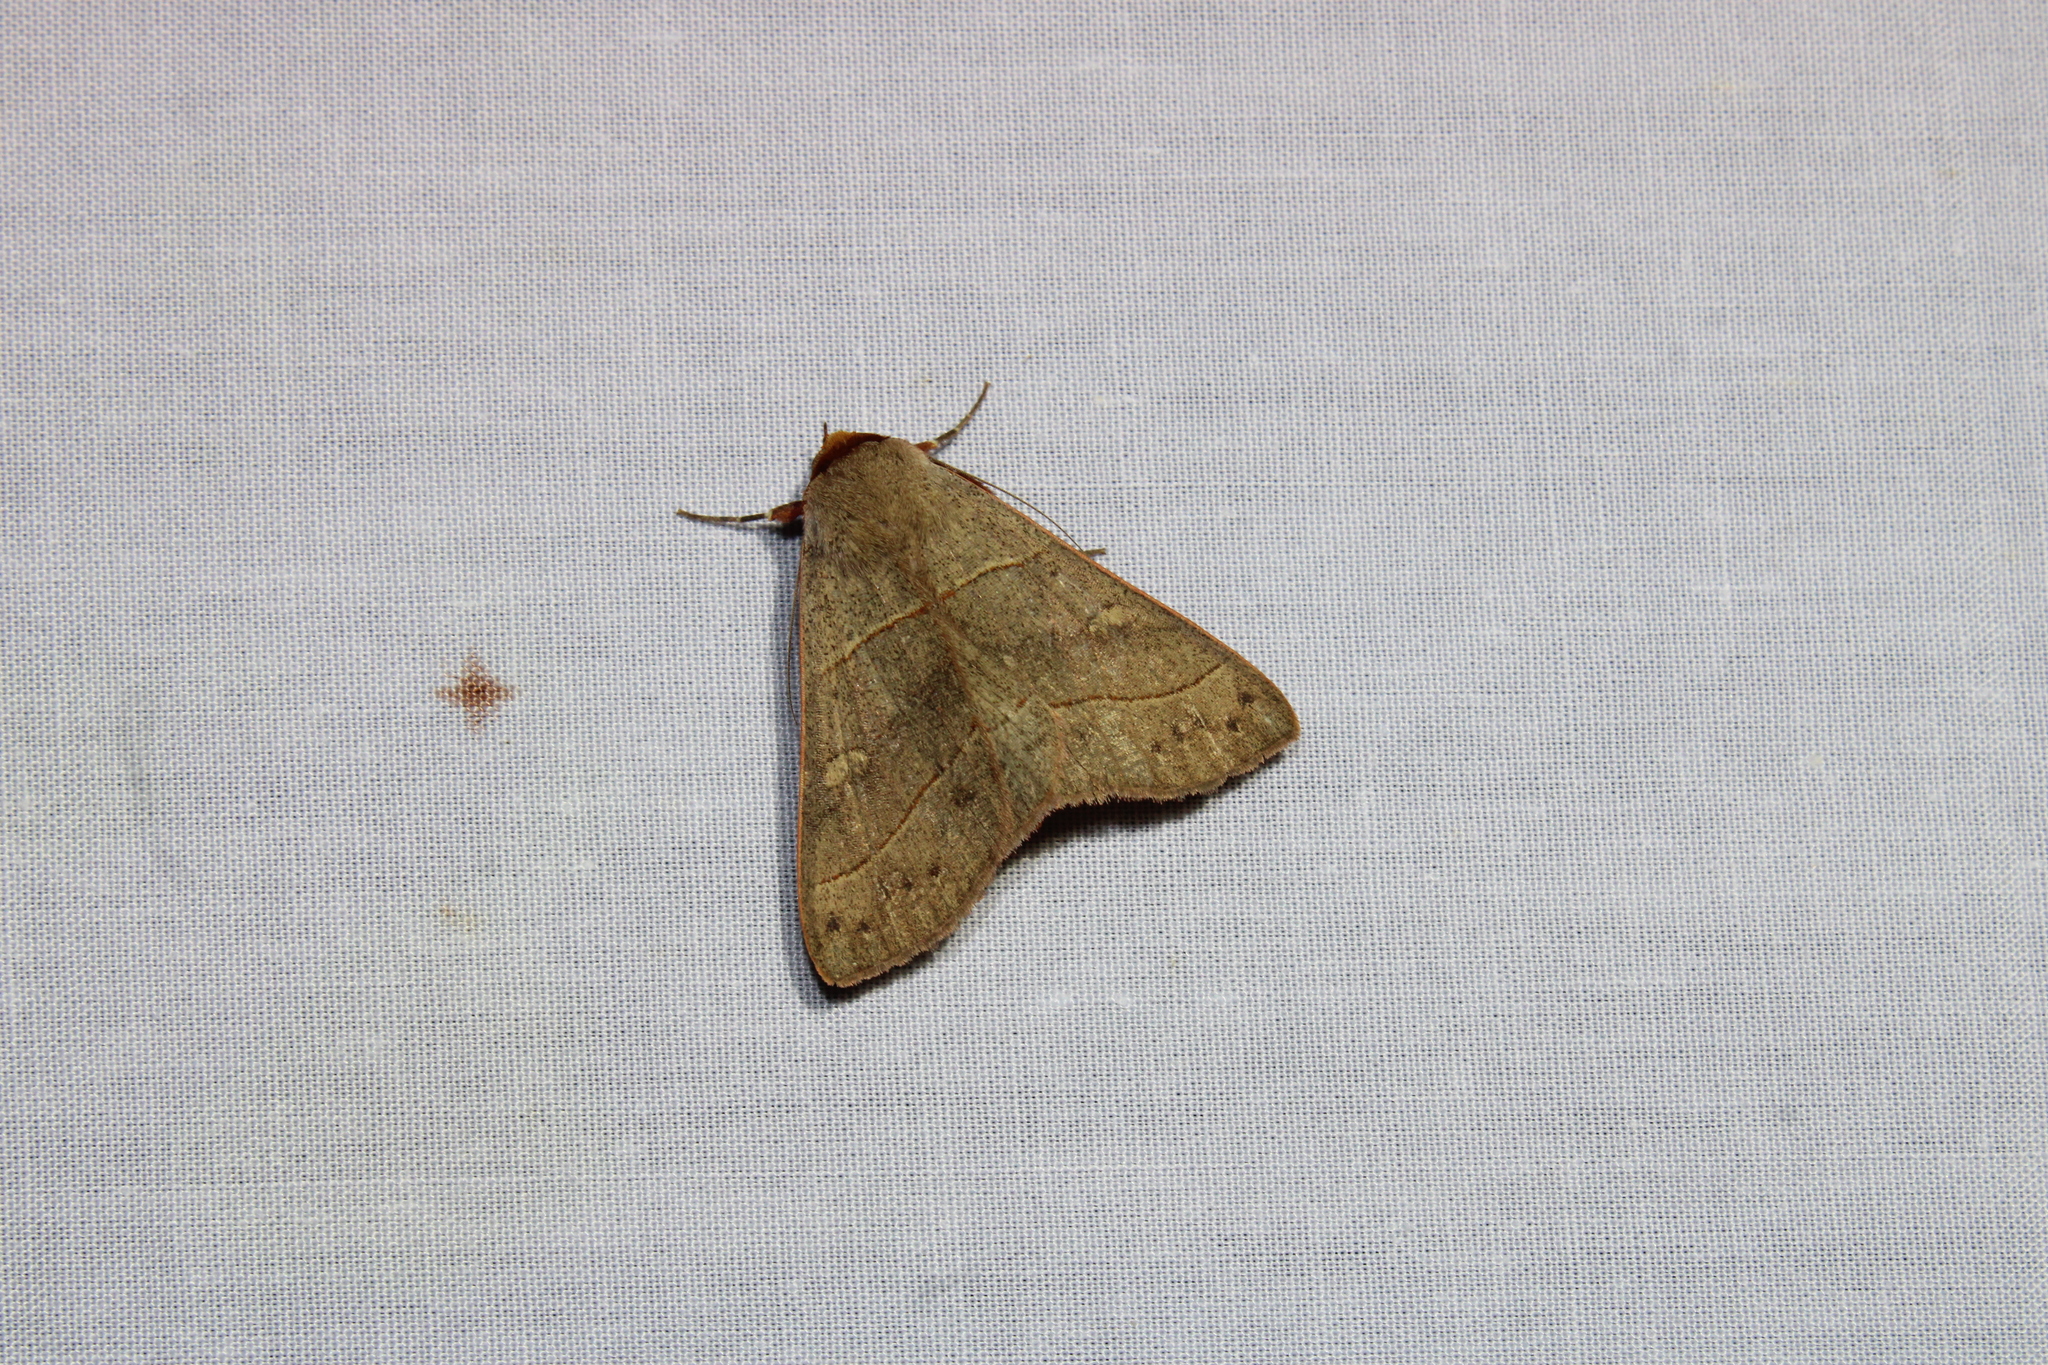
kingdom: Animalia
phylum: Arthropoda
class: Insecta
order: Lepidoptera
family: Erebidae
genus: Panopoda
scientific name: Panopoda rufimargo
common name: Red-lined panopoda moth
